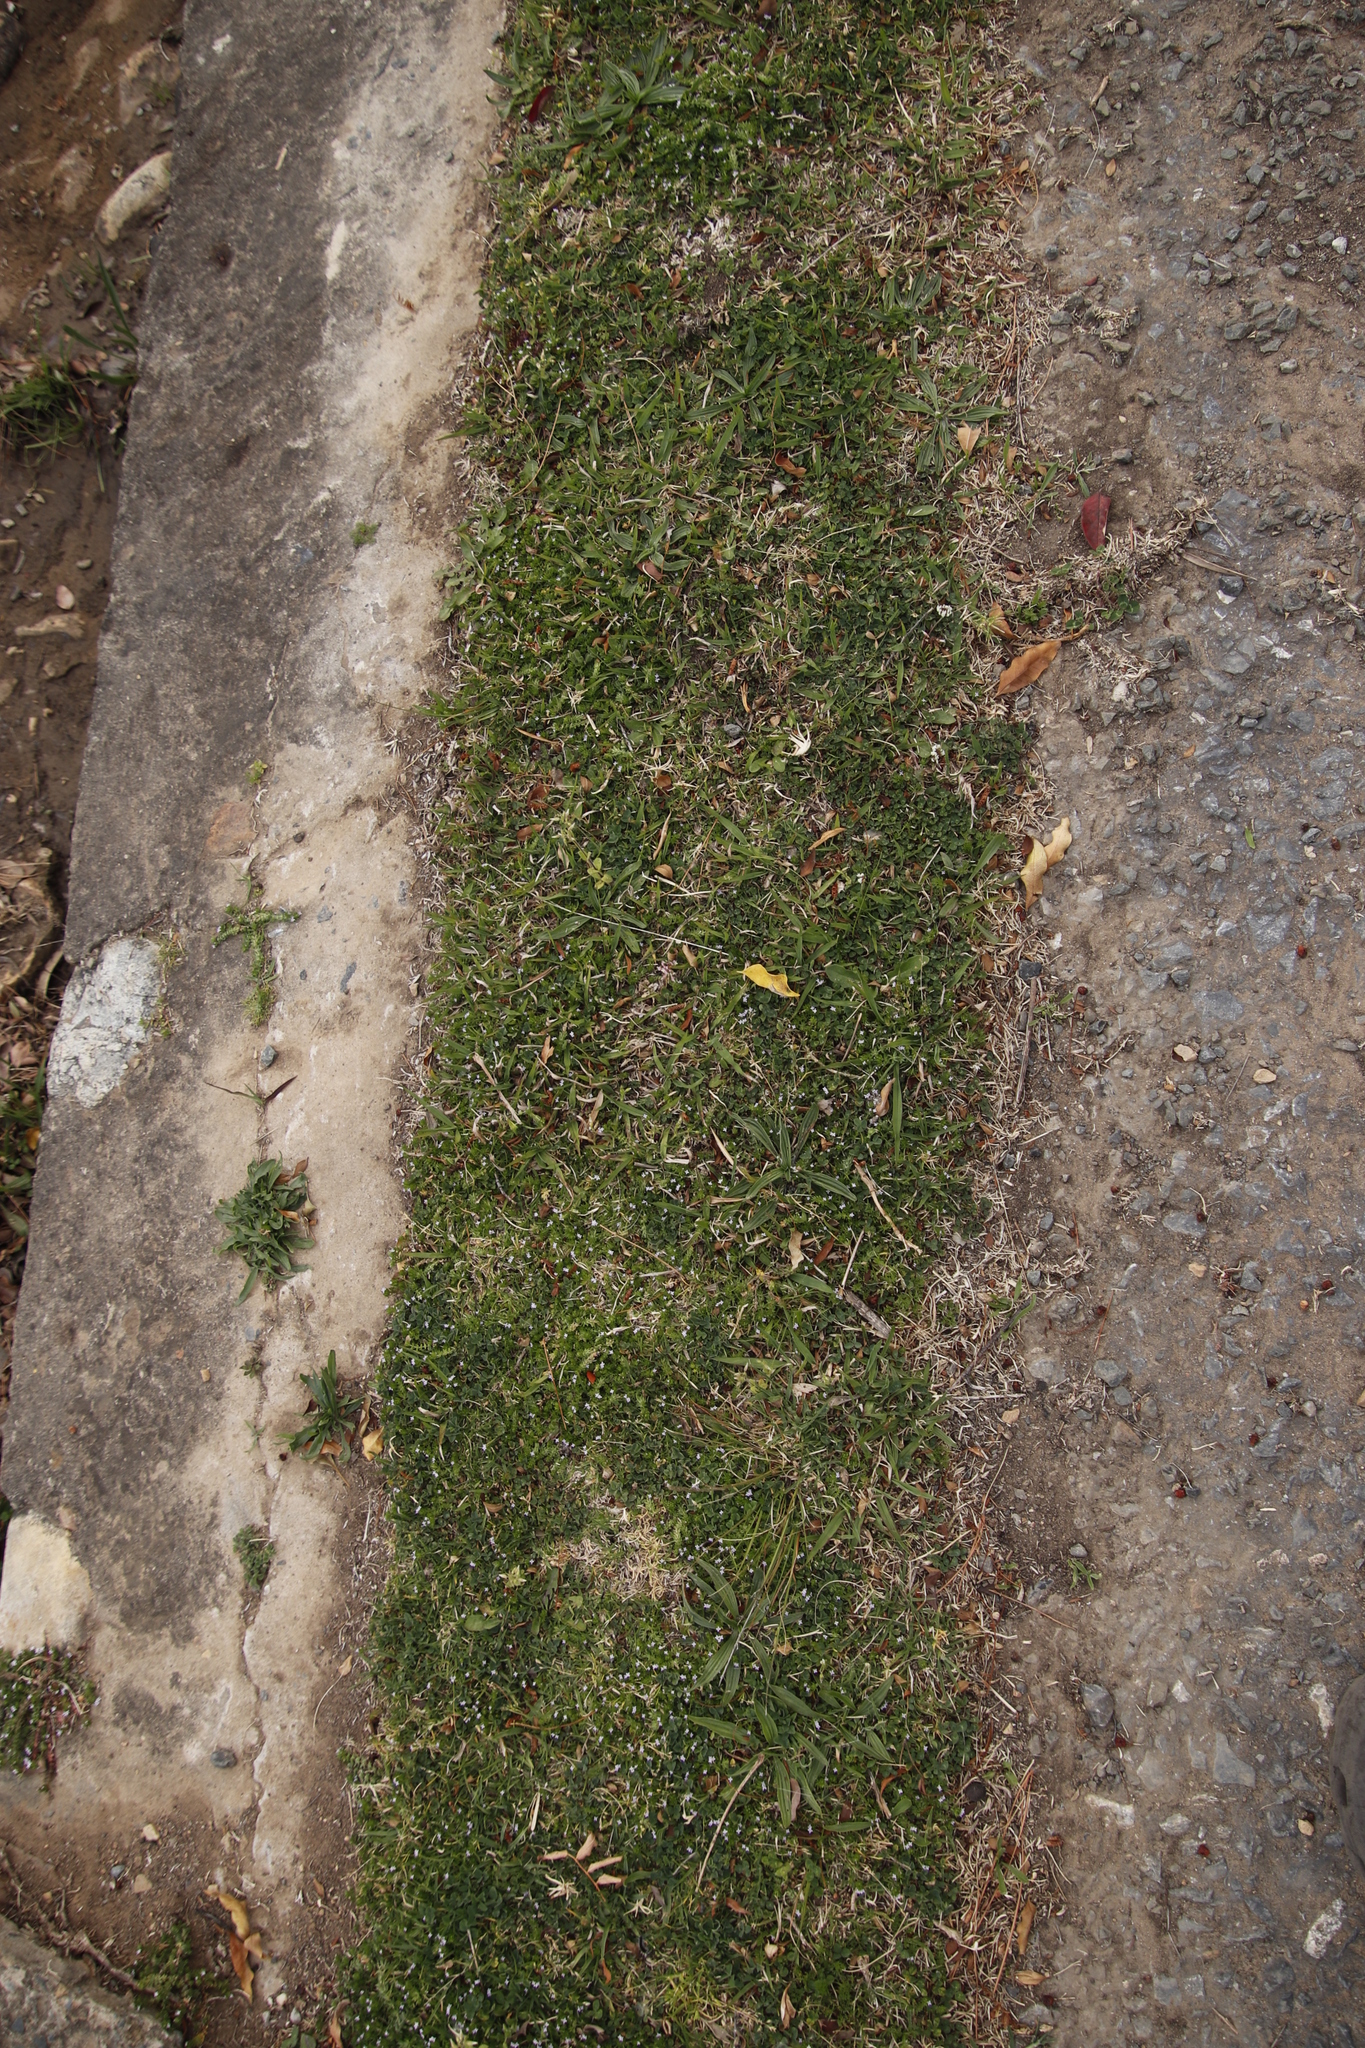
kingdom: Plantae
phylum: Tracheophyta
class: Magnoliopsida
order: Gentianales
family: Rubiaceae
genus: Sherardia
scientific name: Sherardia arvensis
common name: Field madder
